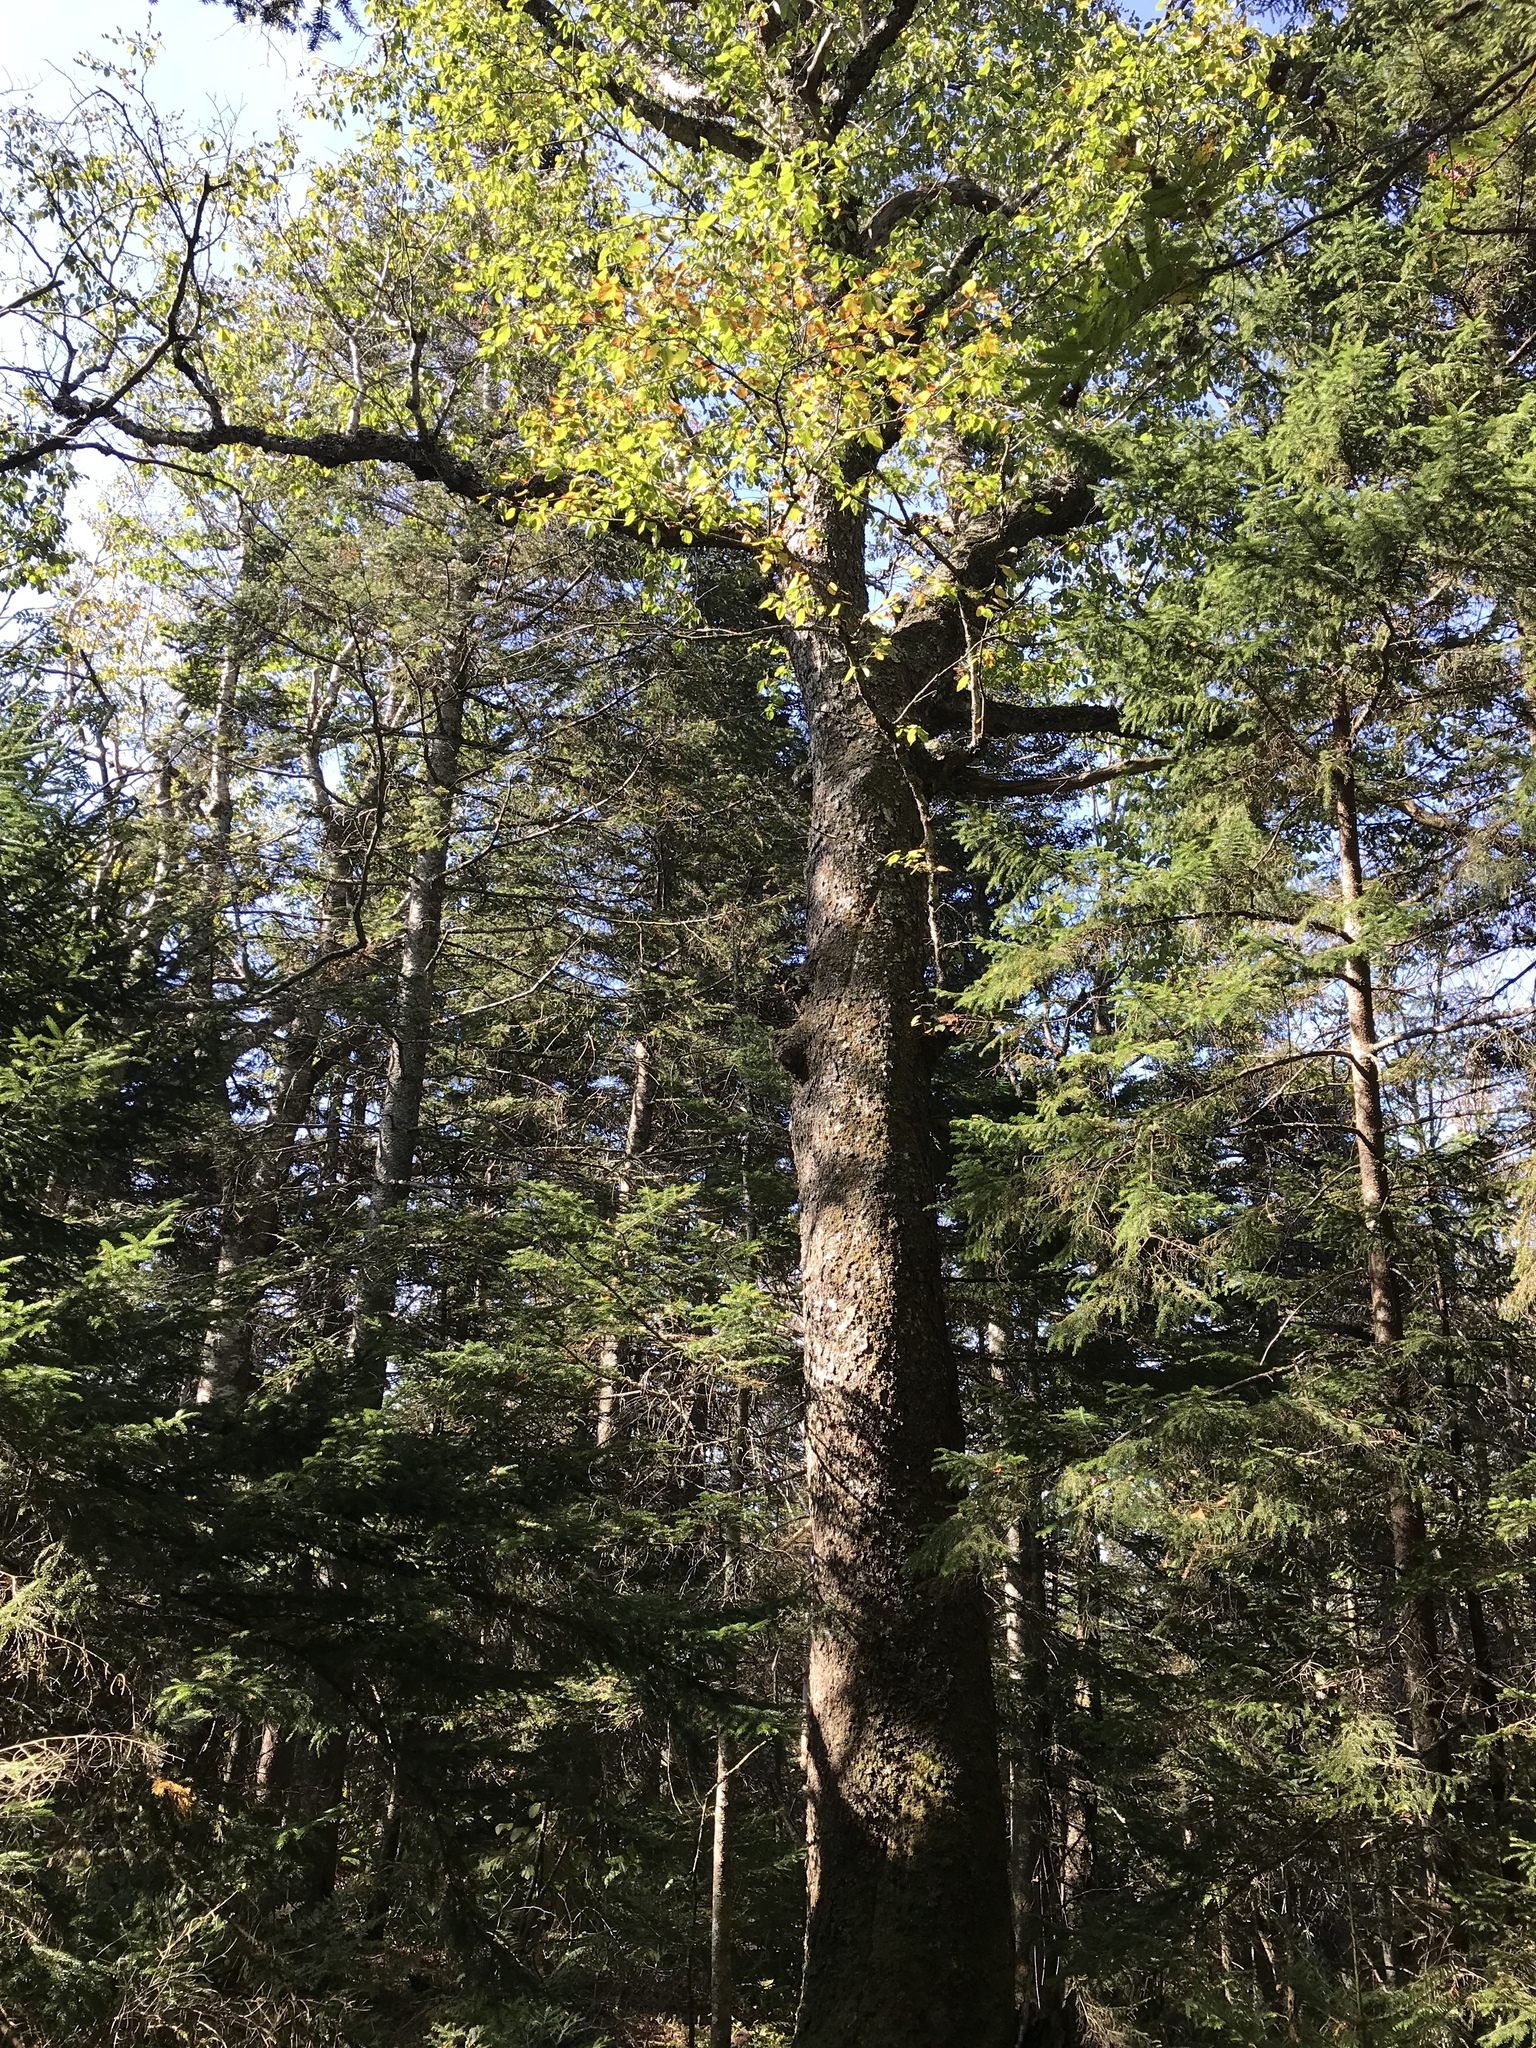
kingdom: Plantae
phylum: Tracheophyta
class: Magnoliopsida
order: Fagales
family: Betulaceae
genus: Betula
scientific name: Betula alleghaniensis
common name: Yellow birch
